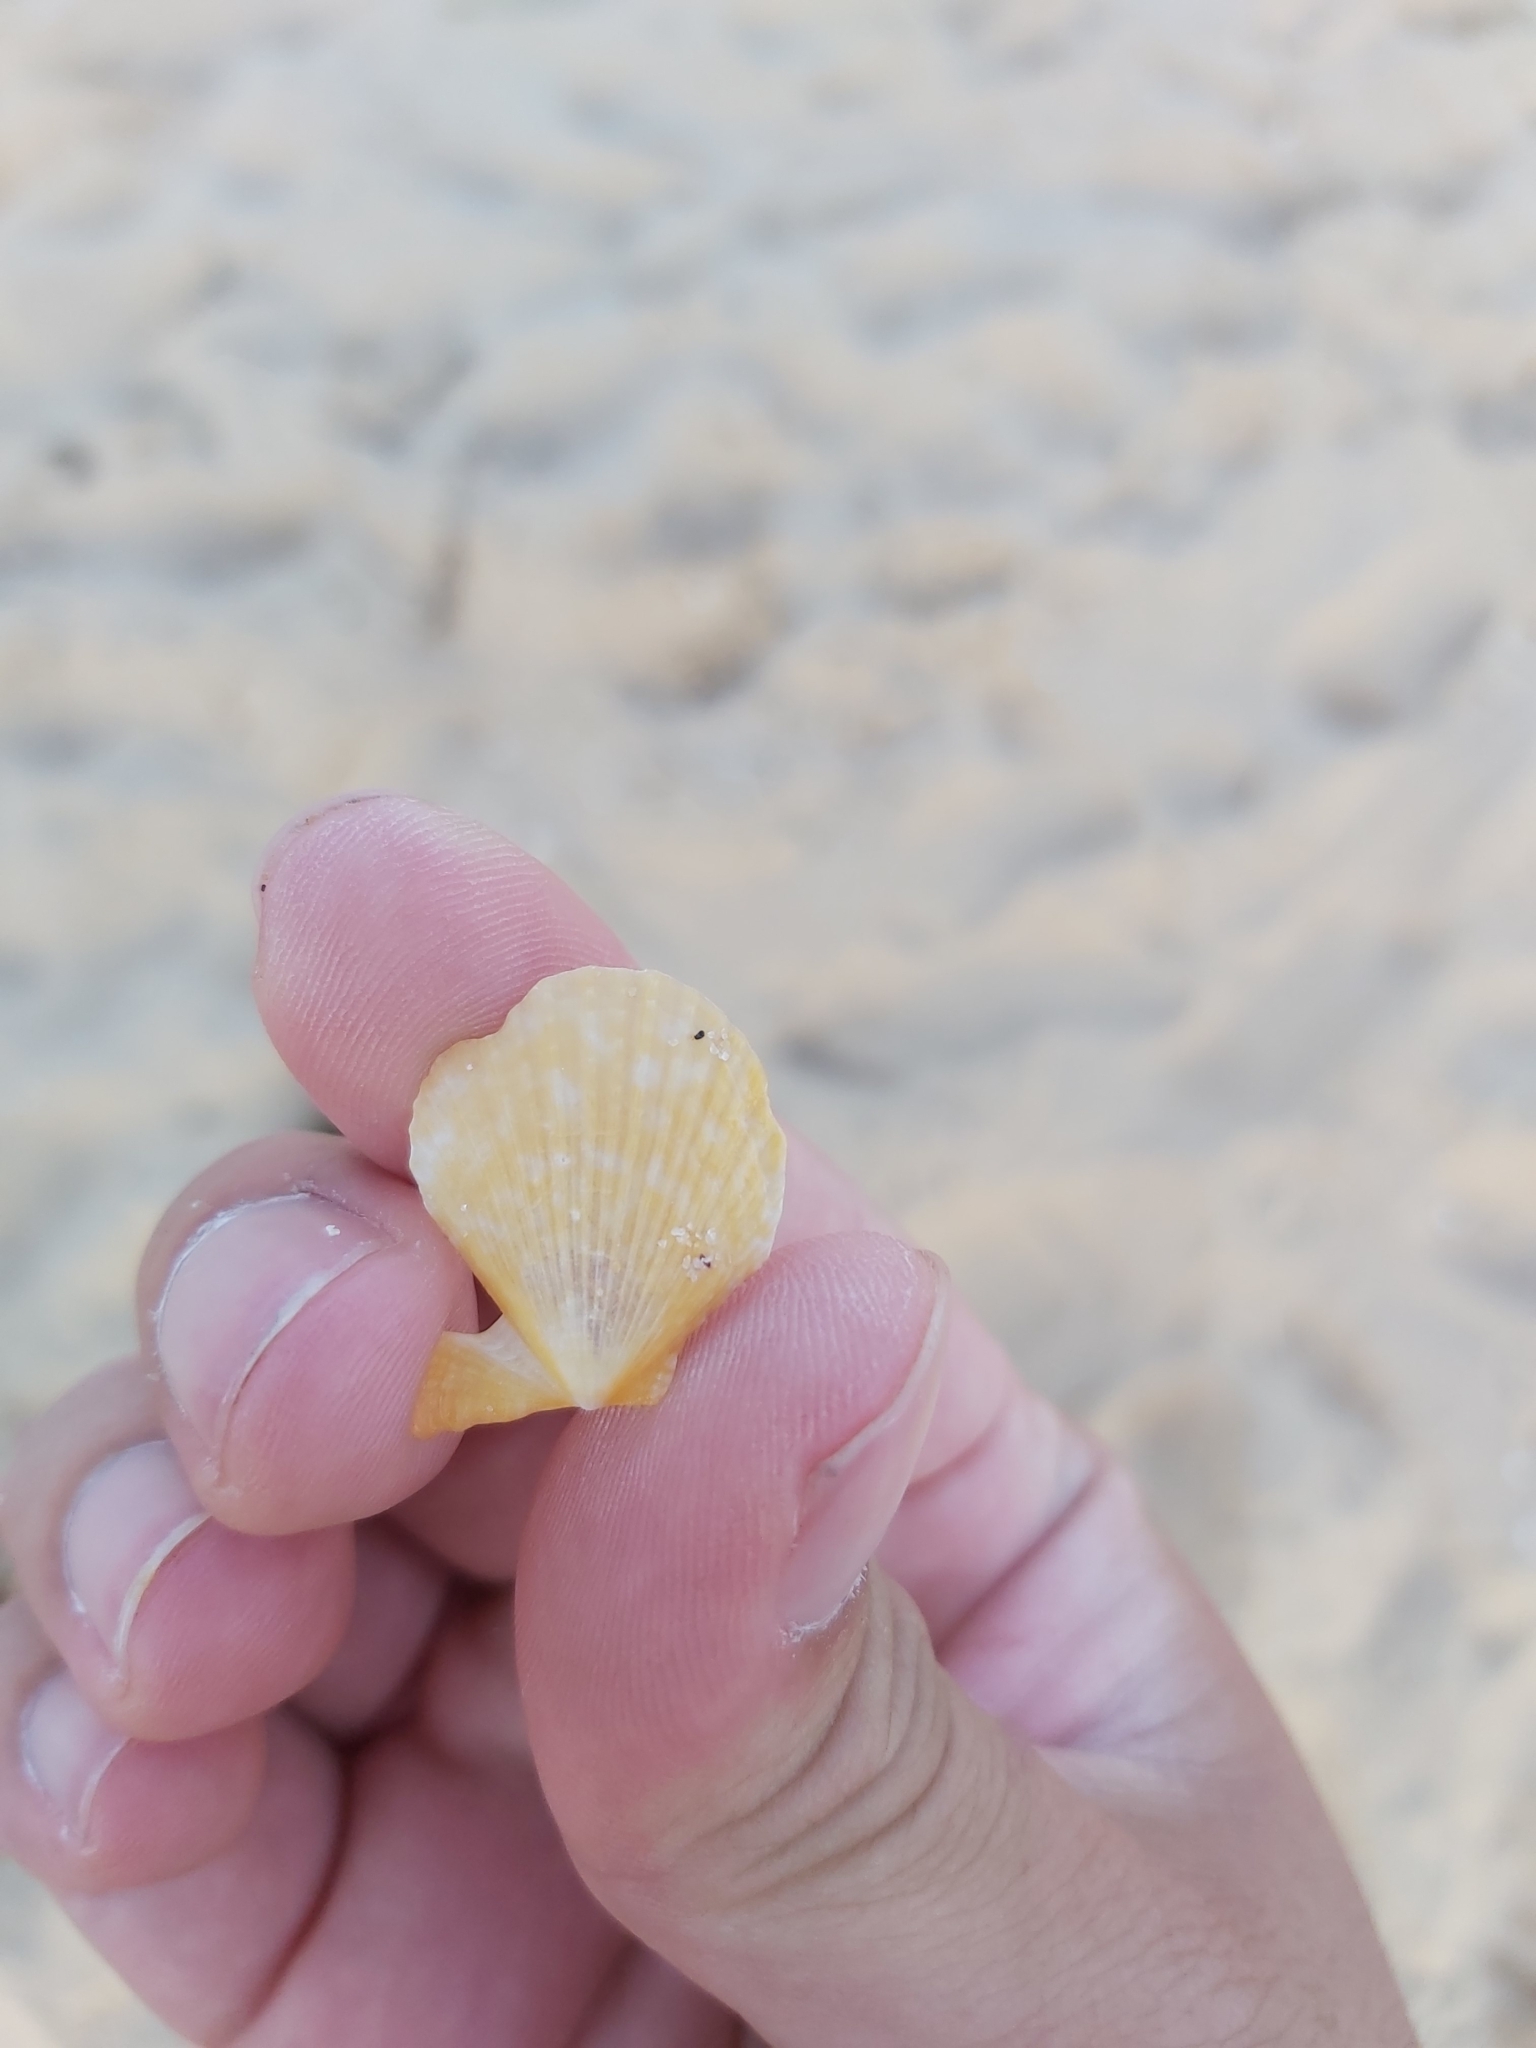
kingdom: Animalia
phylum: Mollusca
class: Bivalvia
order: Pectinida
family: Pectinidae
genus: Scaeochlamys
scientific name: Scaeochlamys livida
